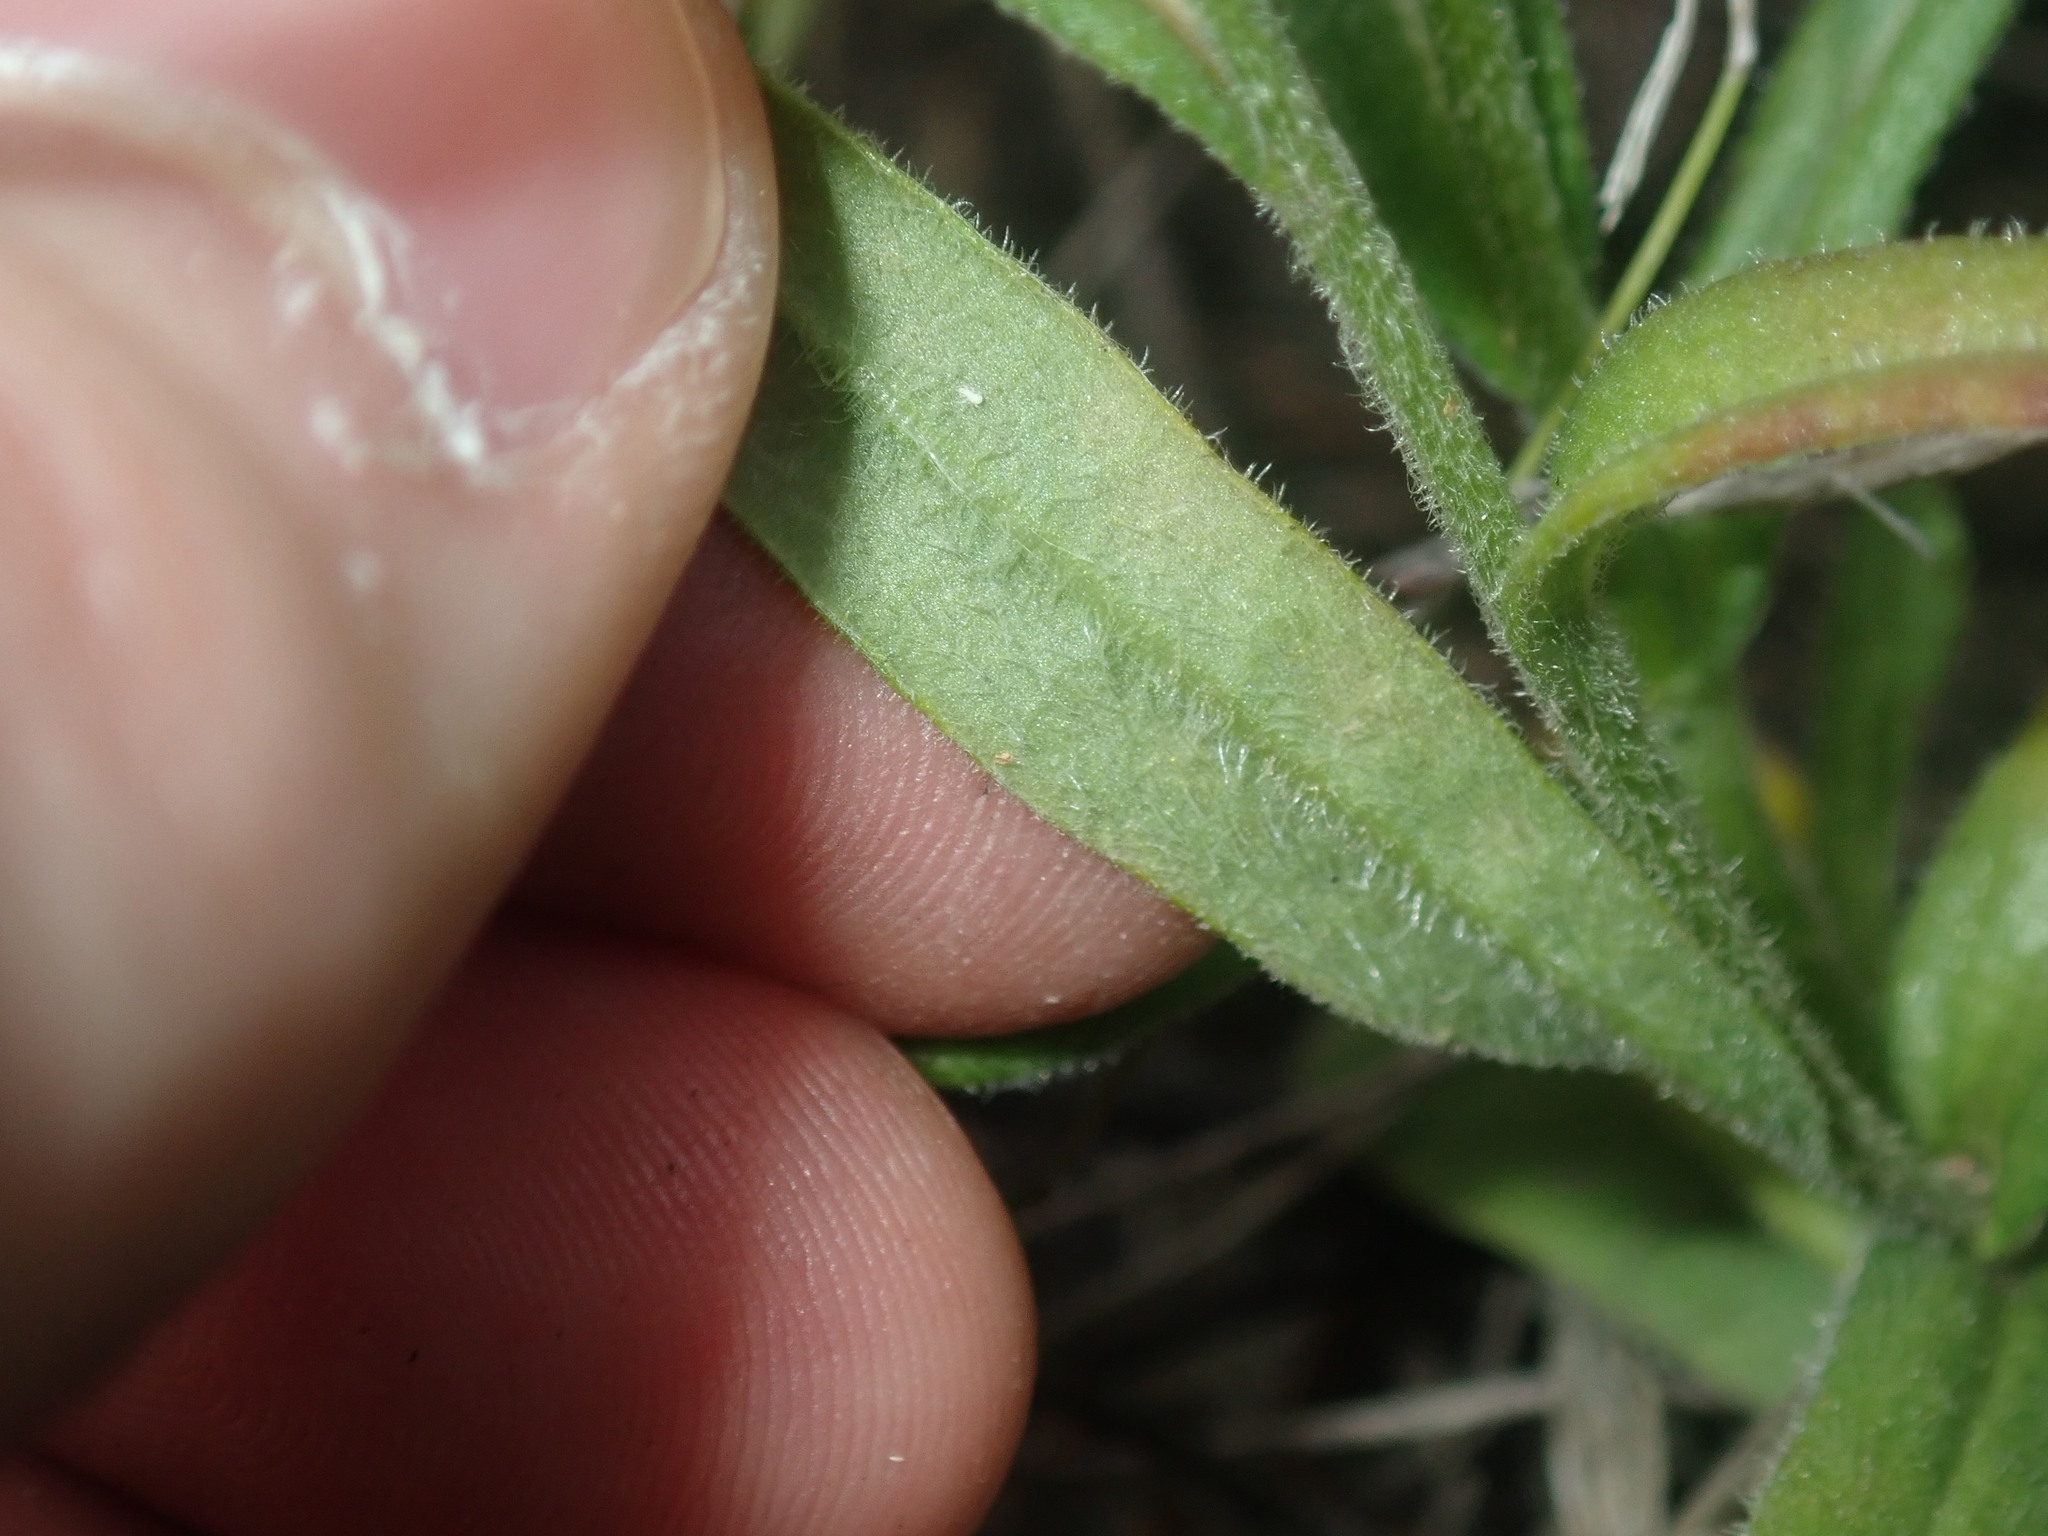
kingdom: Plantae
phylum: Tracheophyta
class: Magnoliopsida
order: Asterales
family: Asteraceae
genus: Coronidium
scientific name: Coronidium scorpioides
